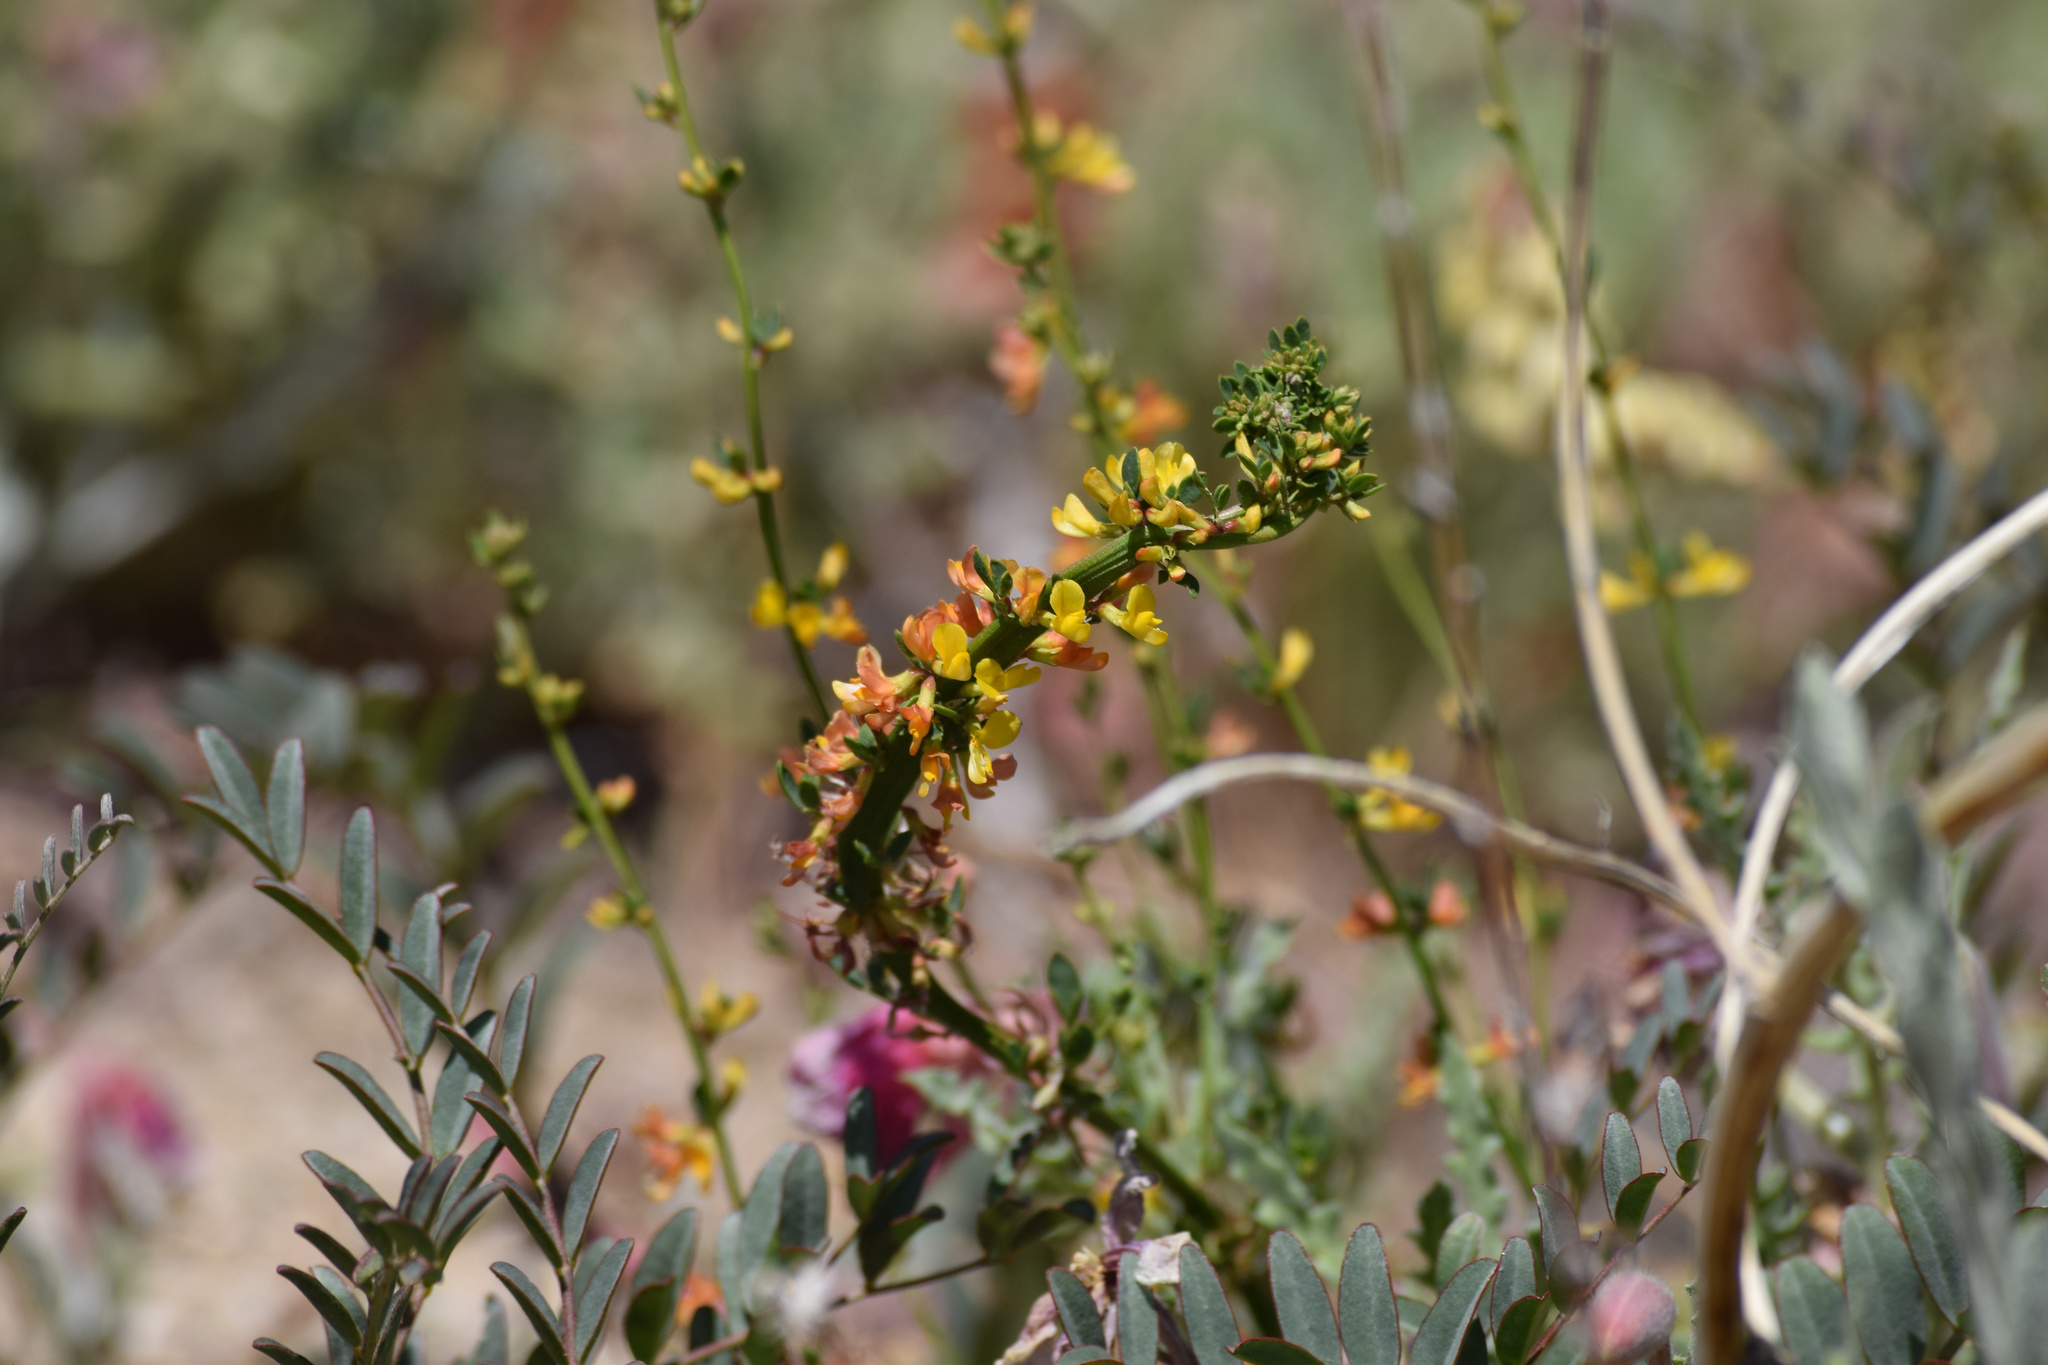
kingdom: Plantae
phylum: Tracheophyta
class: Magnoliopsida
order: Fabales
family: Fabaceae
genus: Acmispon
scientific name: Acmispon glaber
